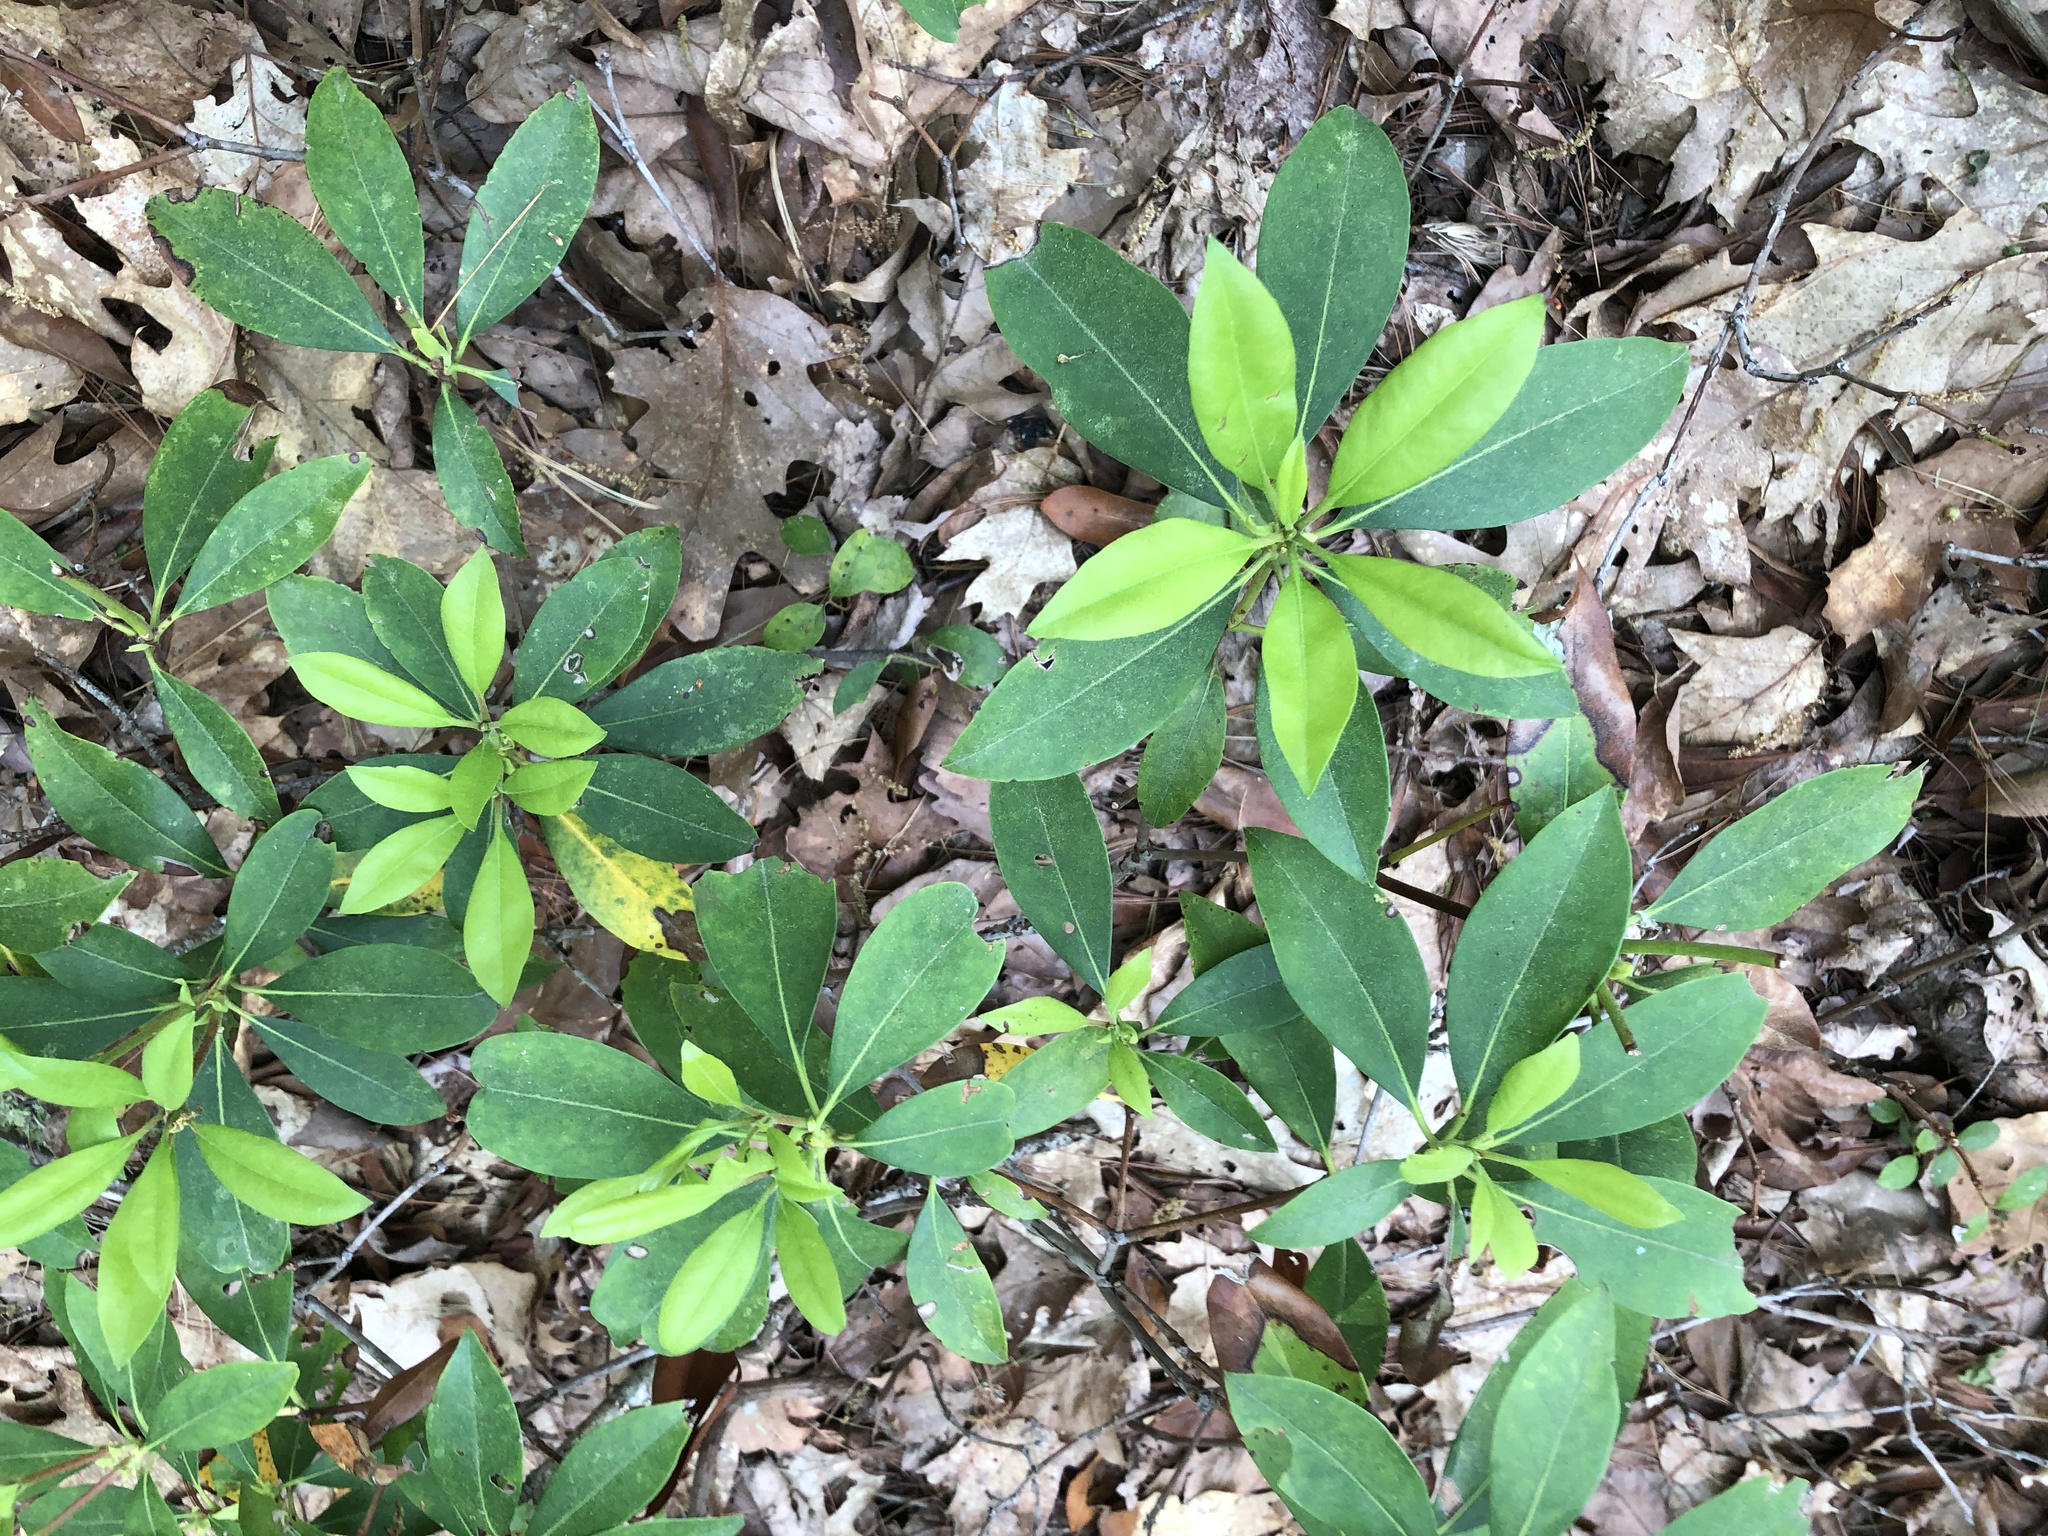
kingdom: Plantae
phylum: Tracheophyta
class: Magnoliopsida
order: Ericales
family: Ericaceae
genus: Kalmia
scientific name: Kalmia latifolia
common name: Mountain-laurel
